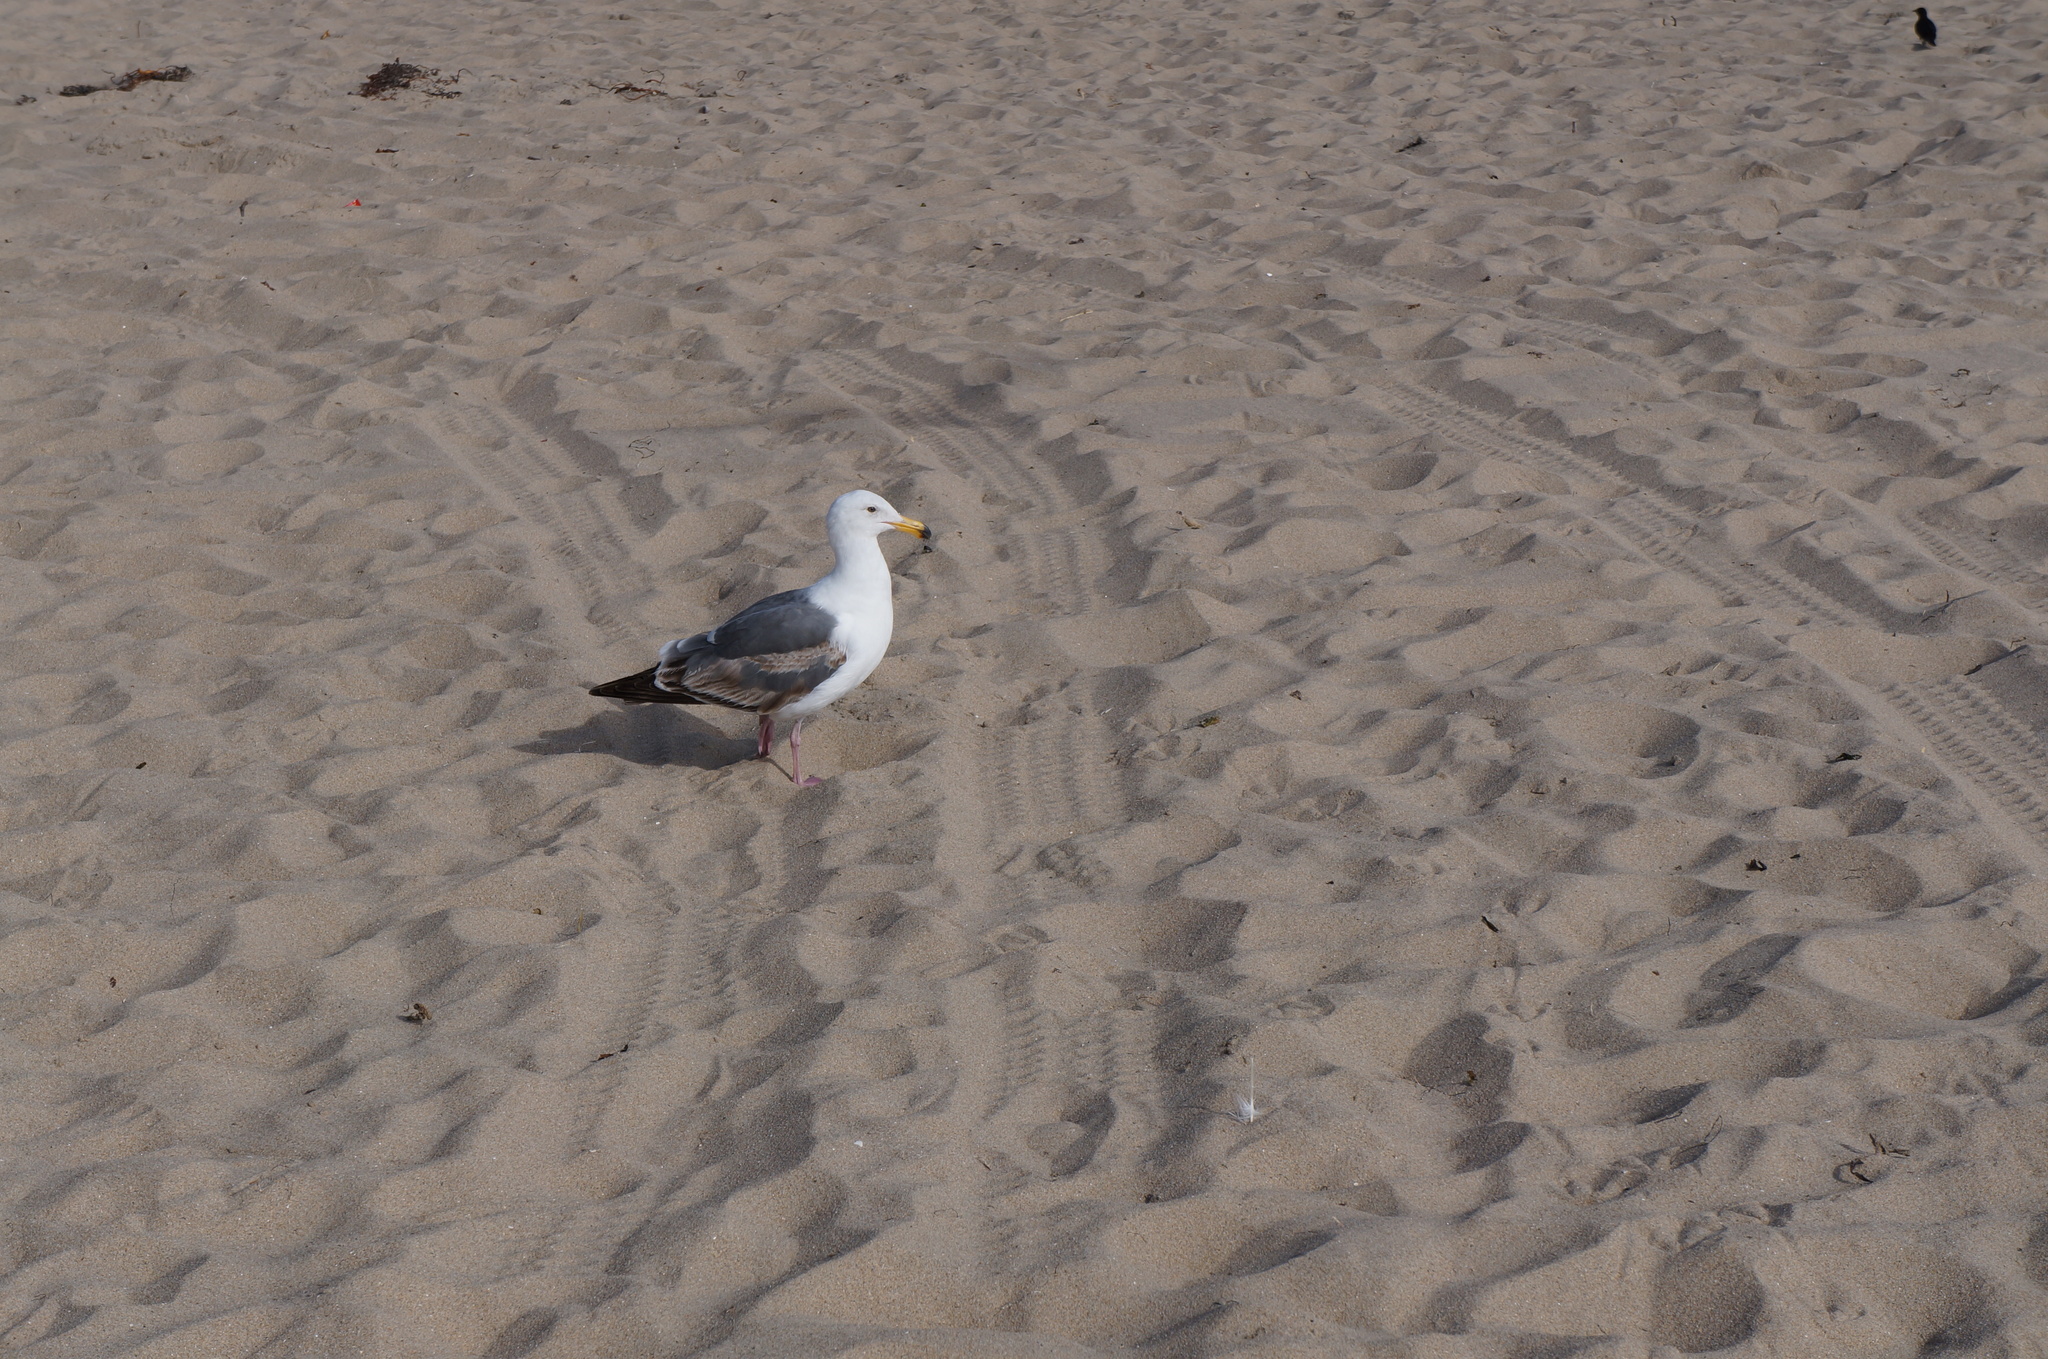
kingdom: Animalia
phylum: Chordata
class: Aves
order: Charadriiformes
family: Laridae
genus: Larus
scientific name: Larus occidentalis
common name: Western gull
